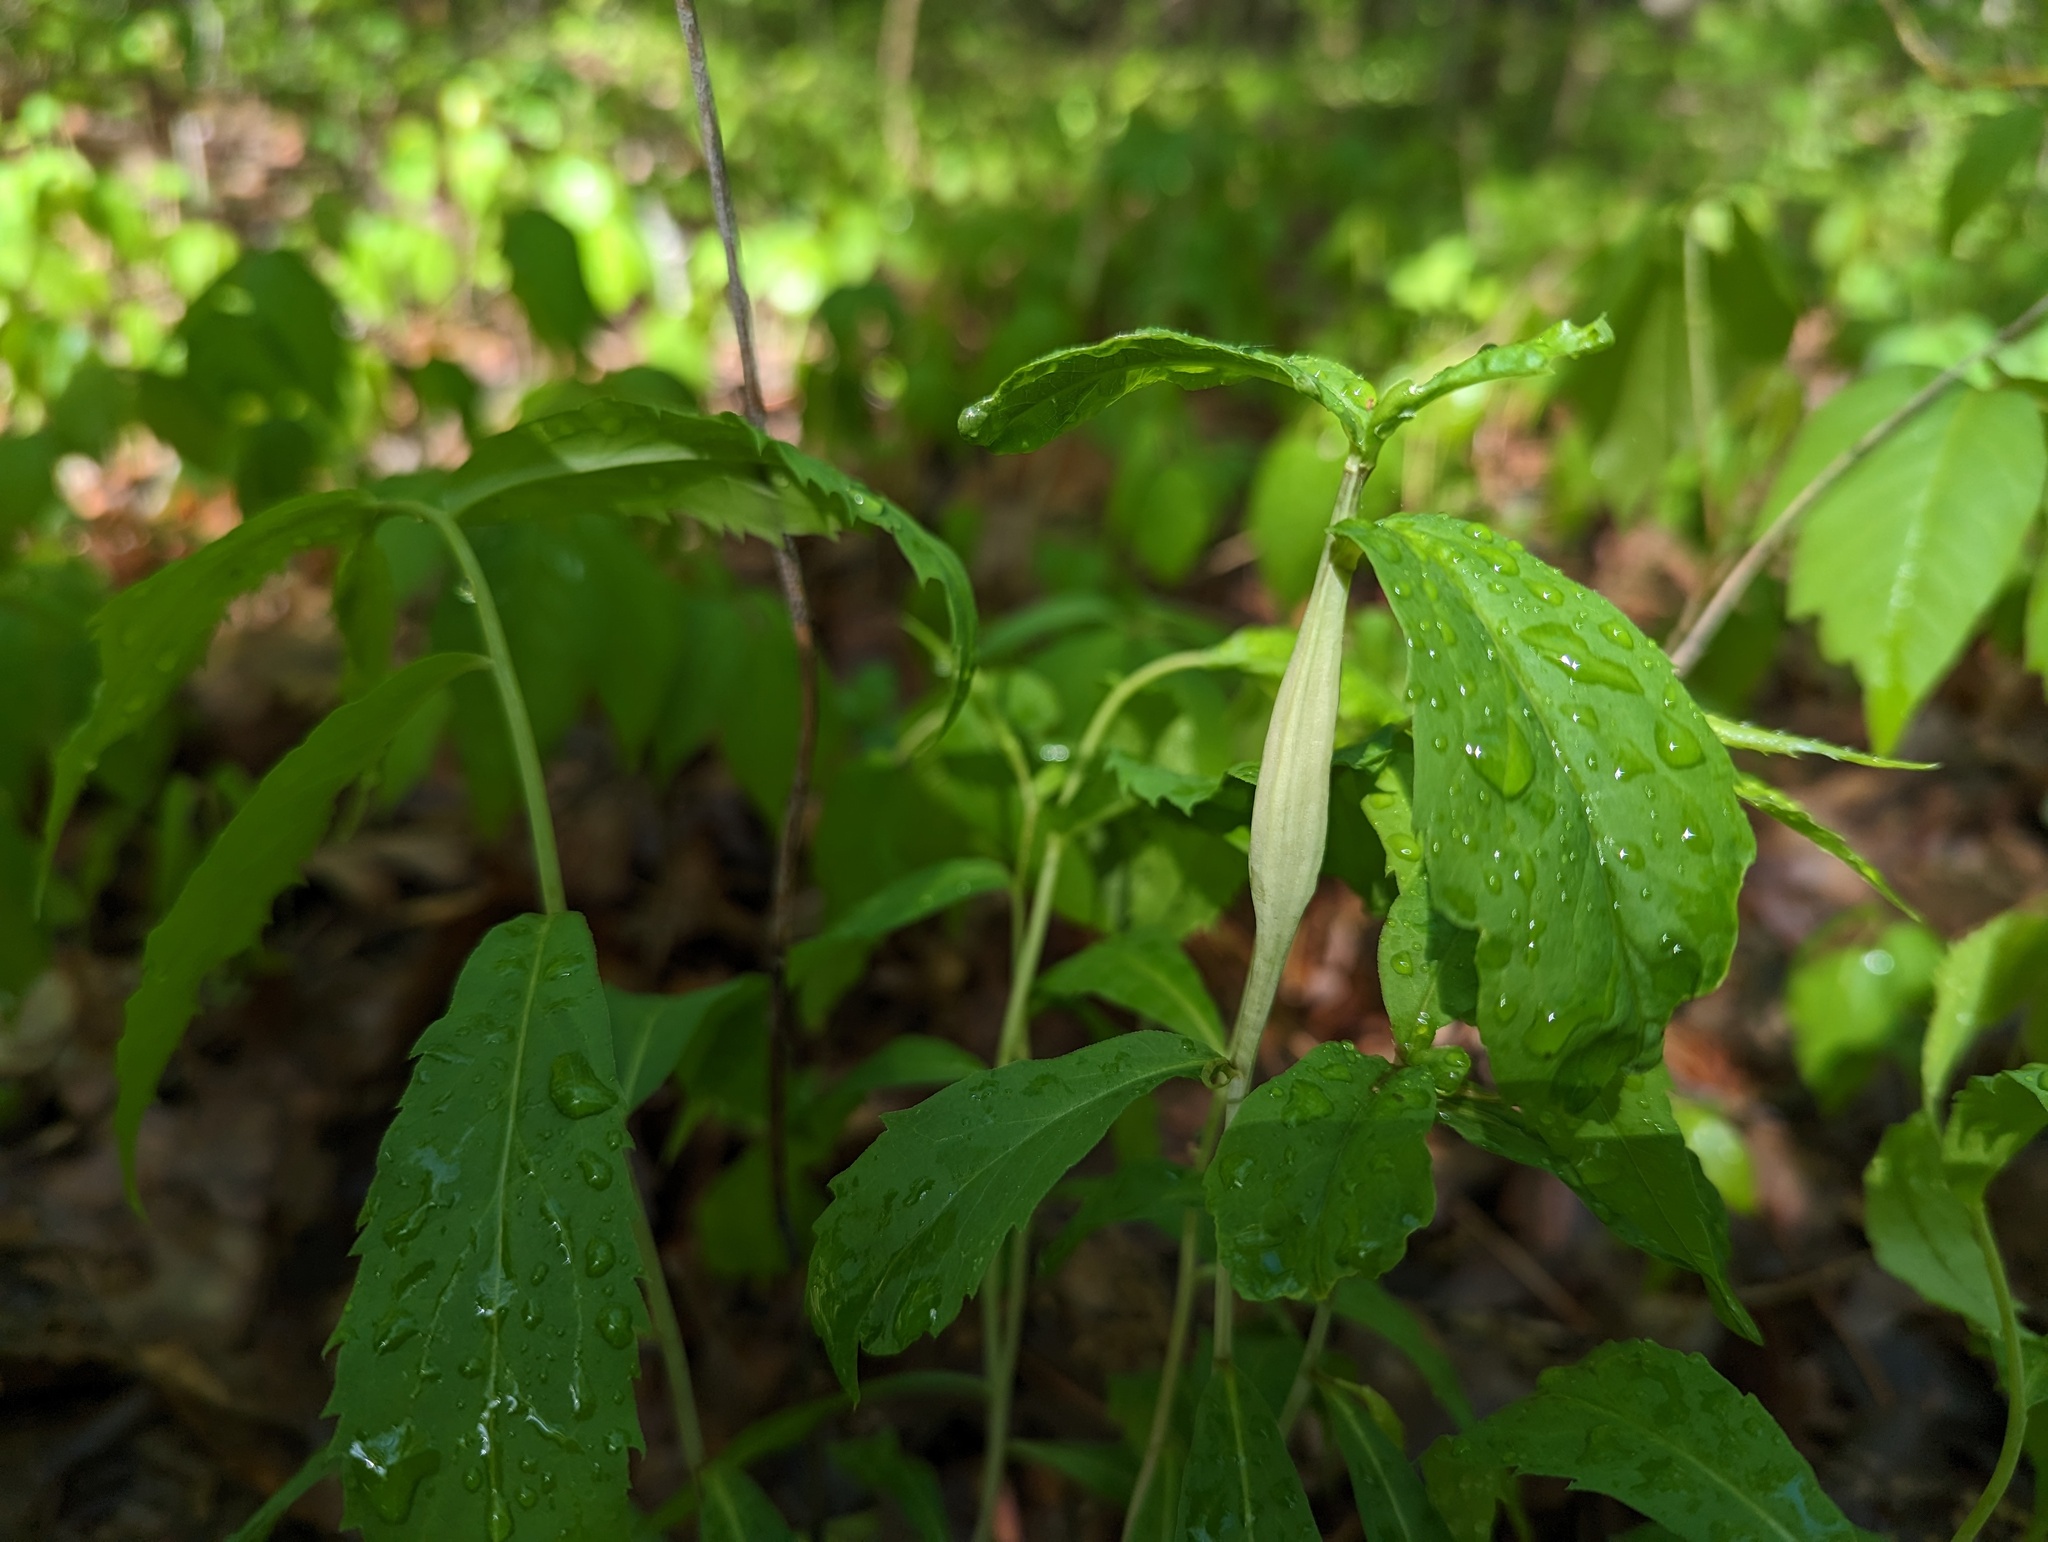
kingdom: Animalia
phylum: Arthropoda
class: Insecta
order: Lepidoptera
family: Gelechiidae
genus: Gnorimoschema
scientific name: Gnorimoschema gallaeasterella
